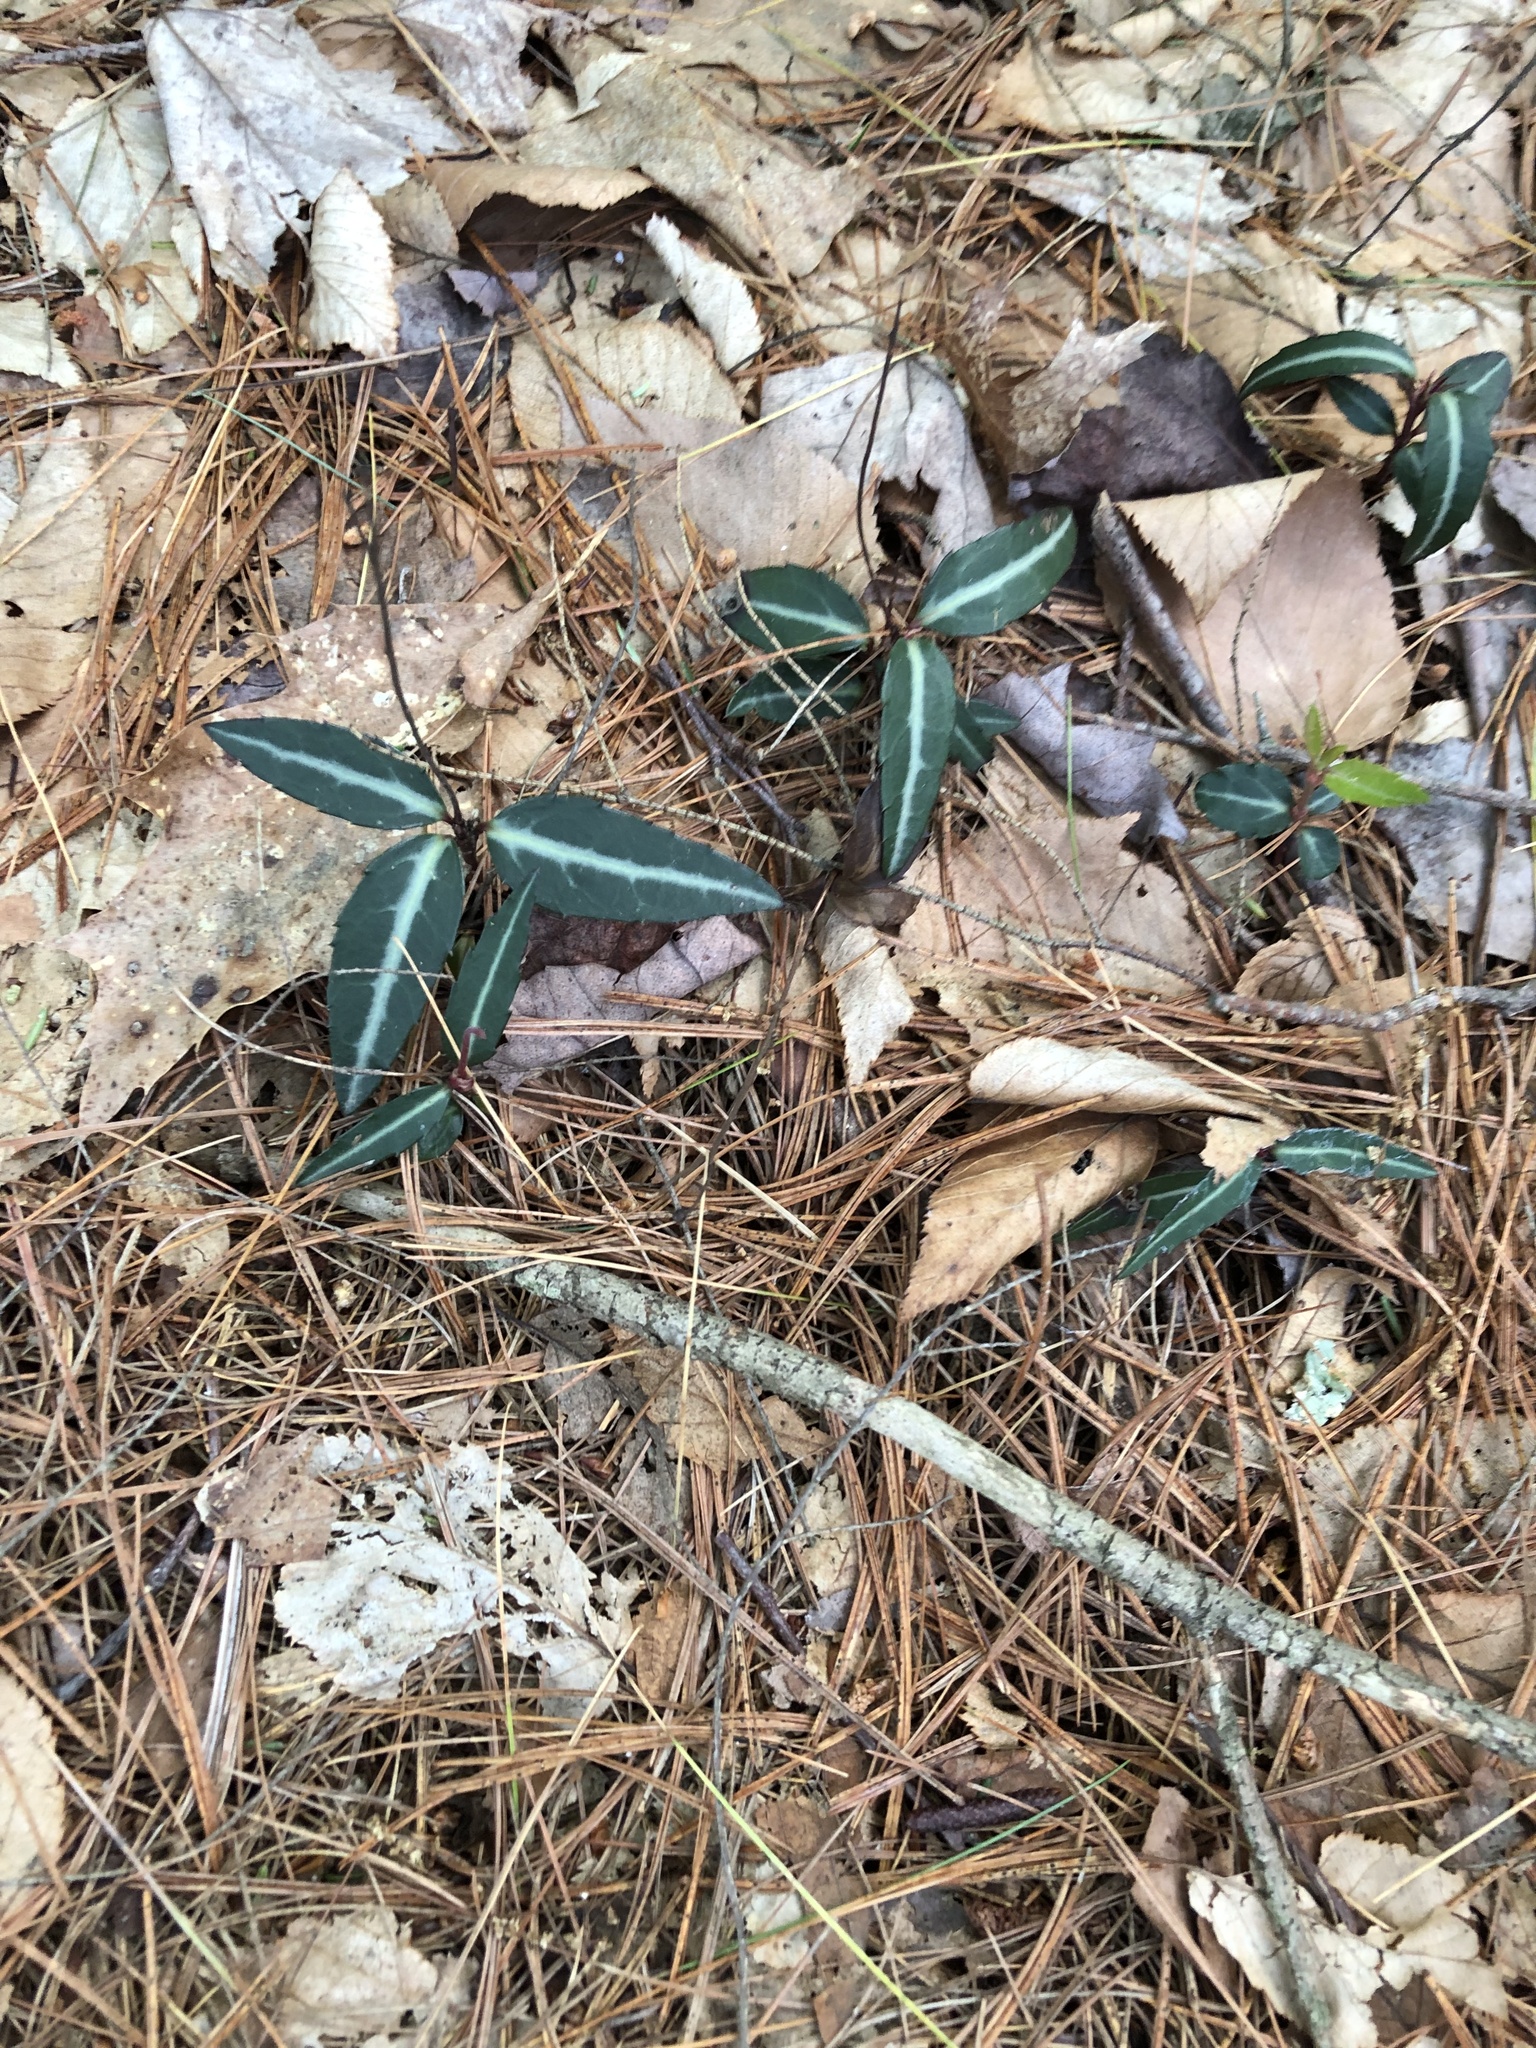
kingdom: Plantae
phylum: Tracheophyta
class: Magnoliopsida
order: Ericales
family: Ericaceae
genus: Chimaphila
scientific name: Chimaphila maculata
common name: Spotted pipsissewa
